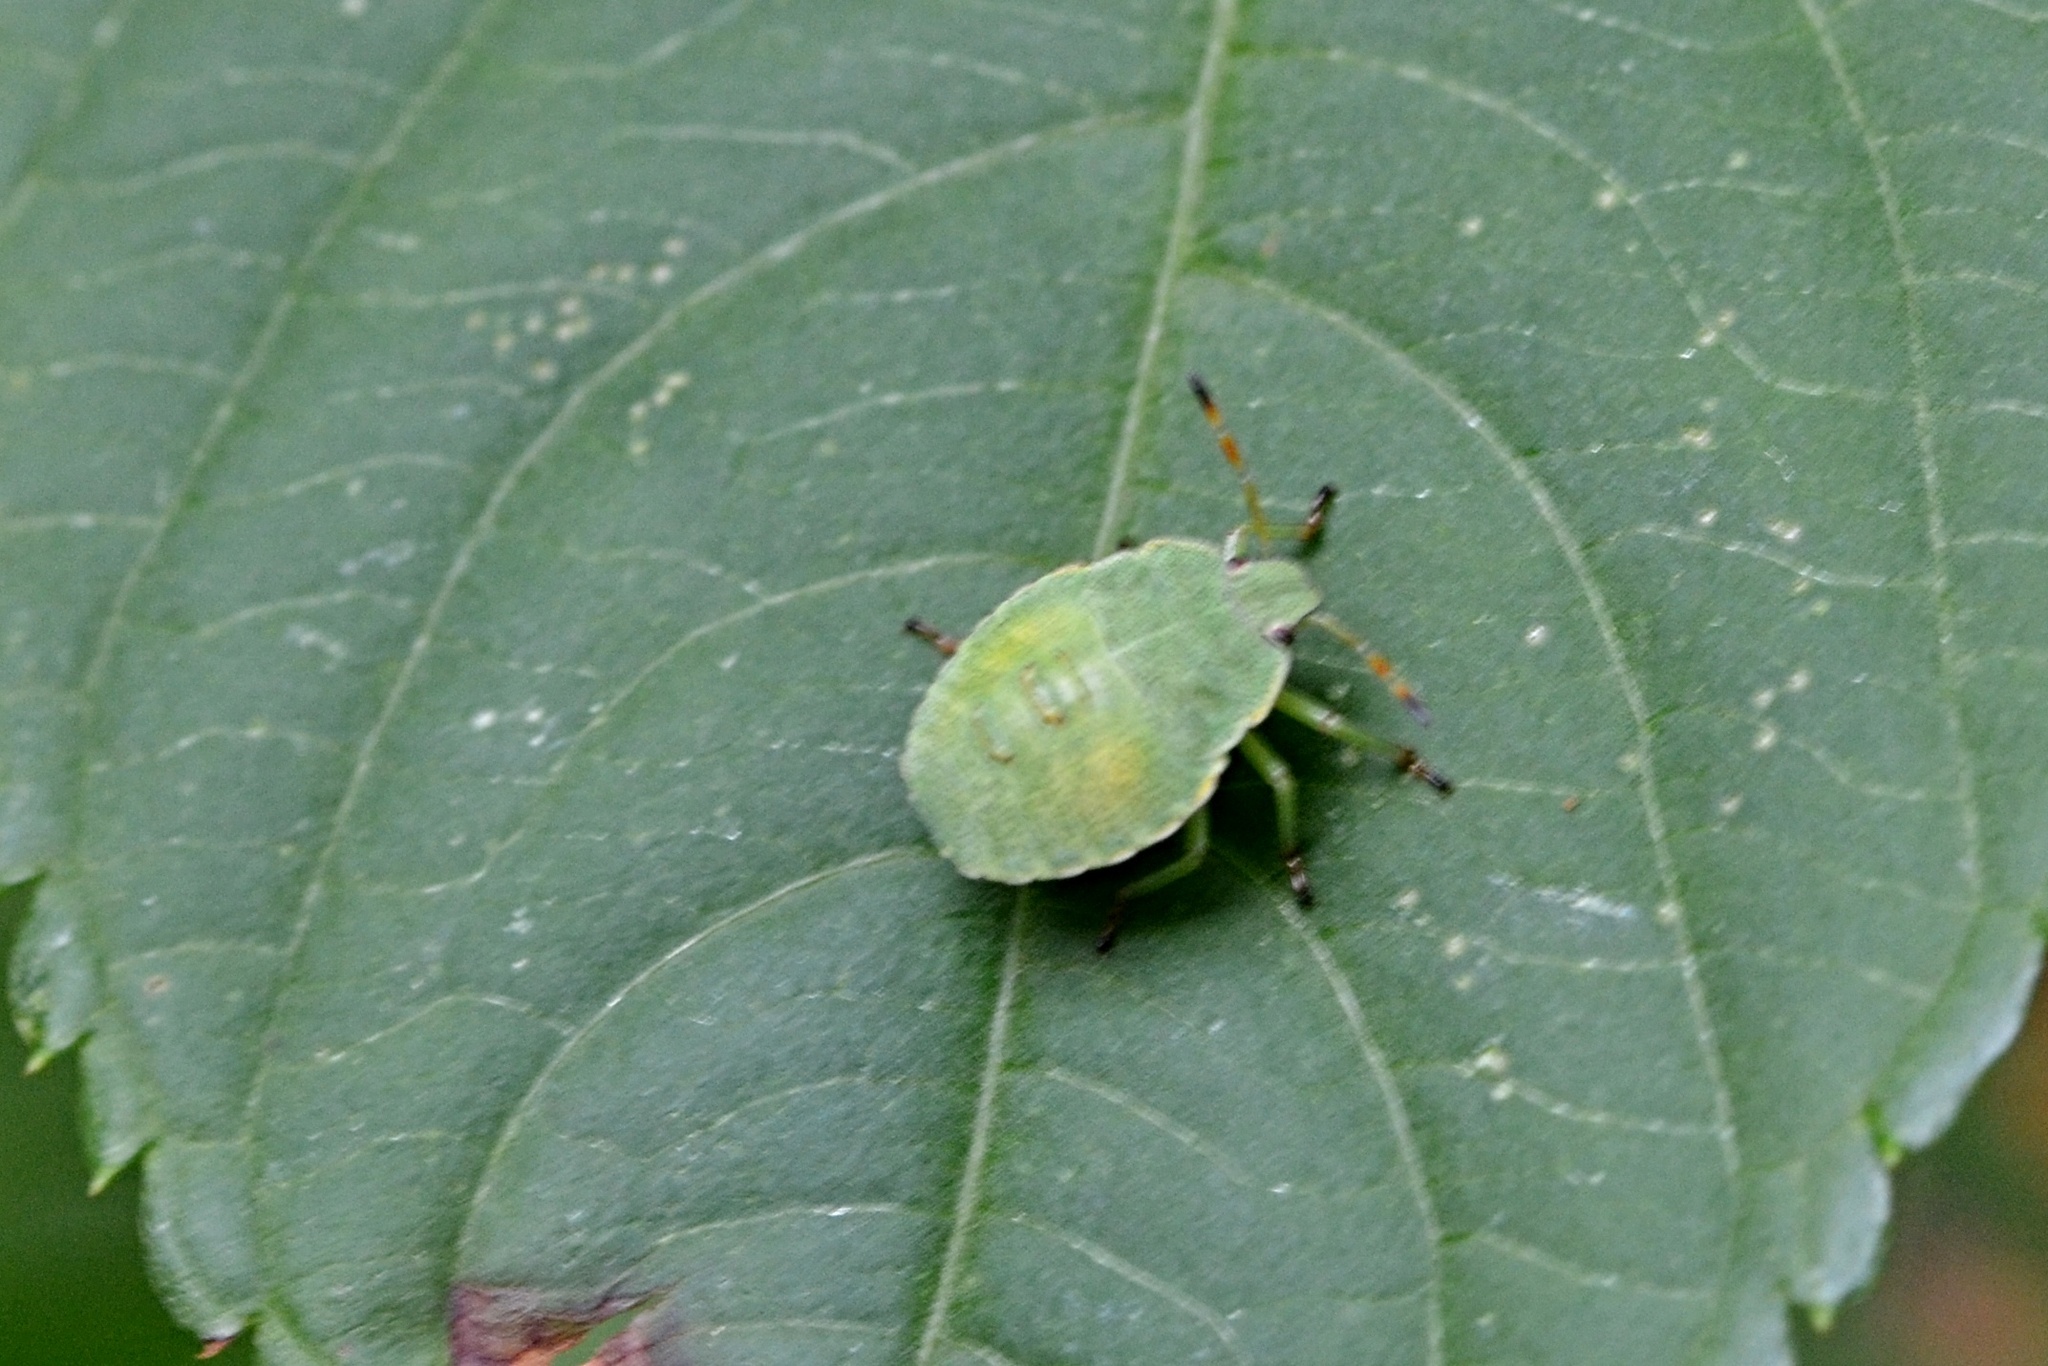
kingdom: Animalia
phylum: Arthropoda
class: Insecta
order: Hemiptera
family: Pentatomidae
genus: Palomena
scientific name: Palomena prasina
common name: Green shieldbug
